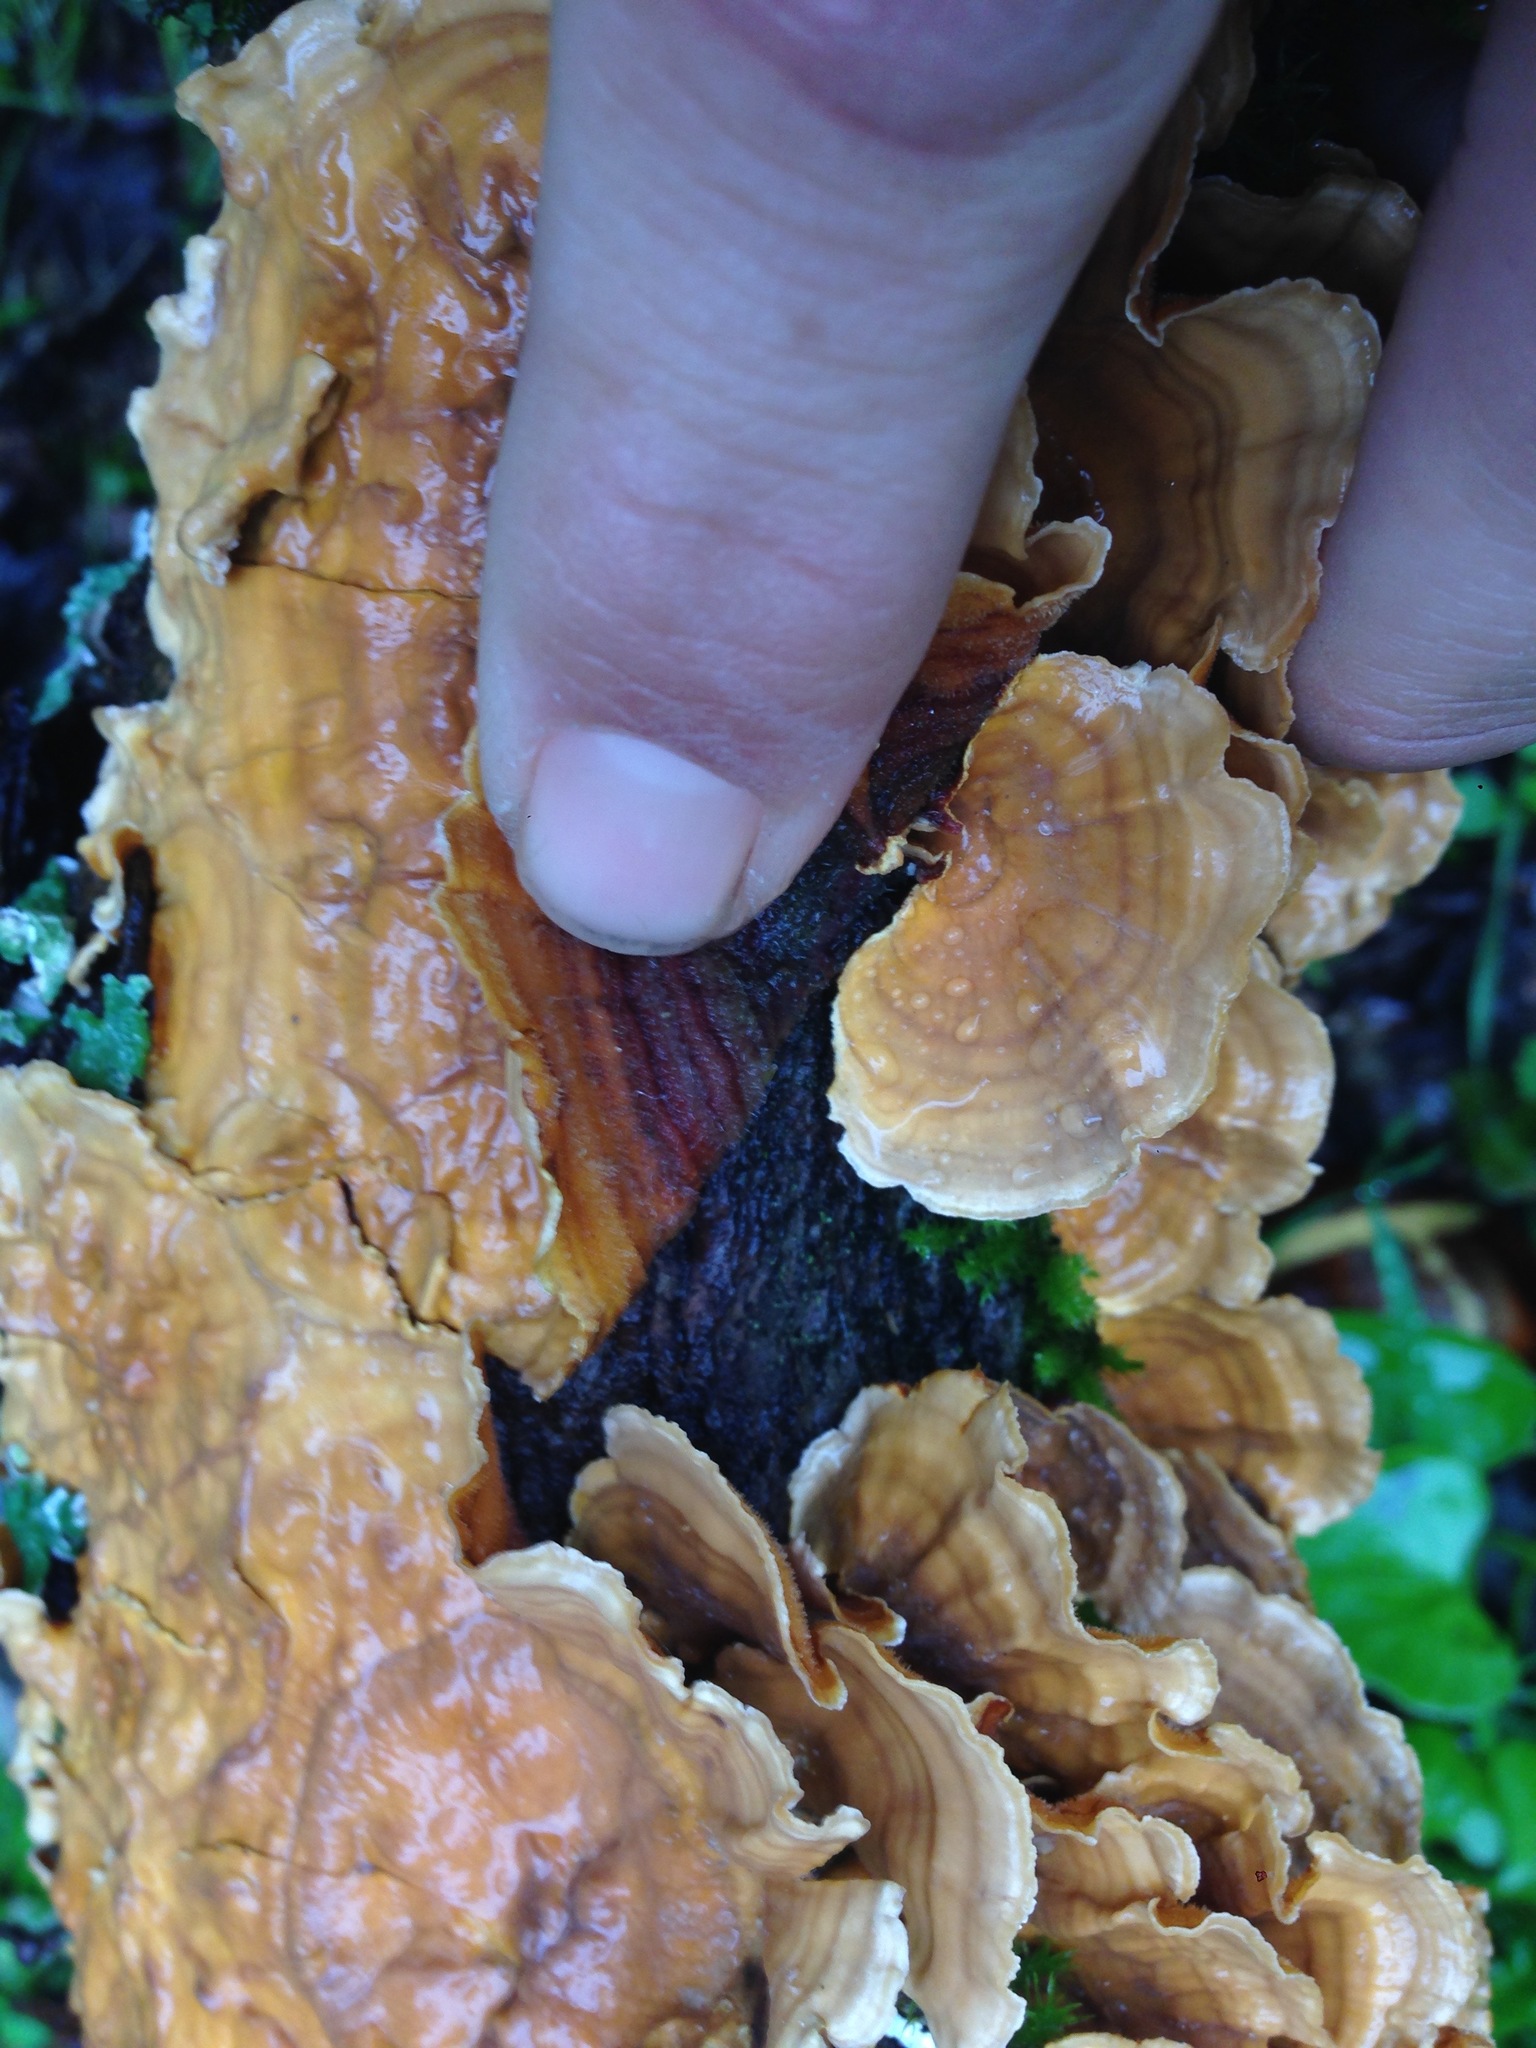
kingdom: Fungi
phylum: Basidiomycota
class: Agaricomycetes
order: Russulales
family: Stereaceae
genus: Stereum
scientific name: Stereum hirsutum
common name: Hairy curtain crust
